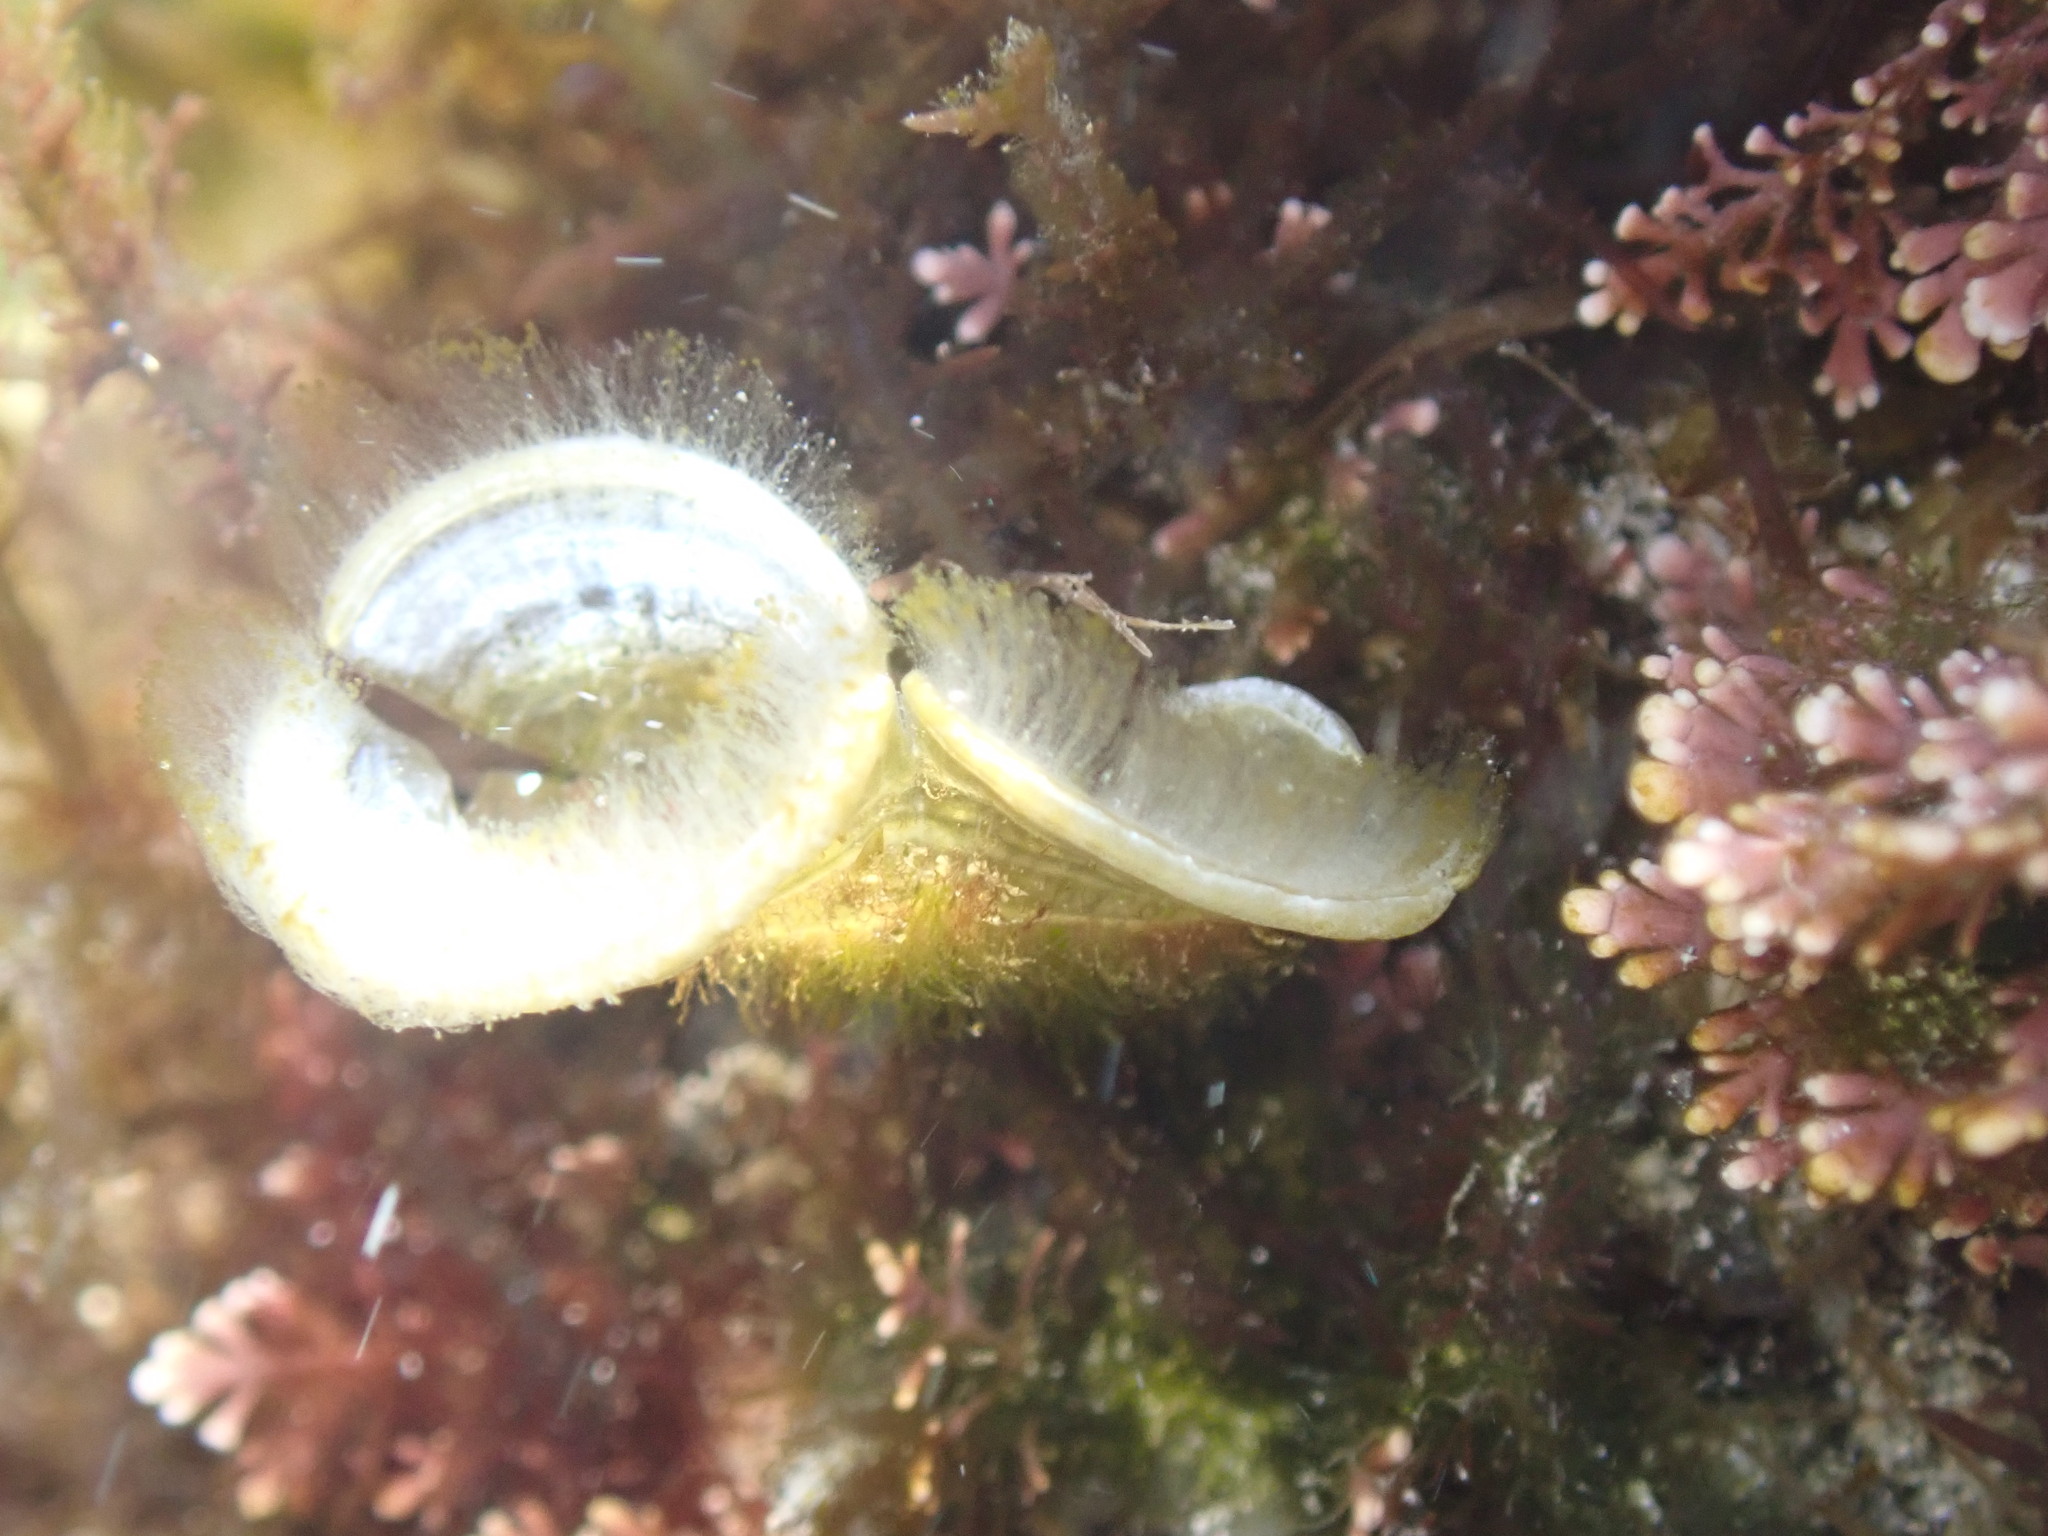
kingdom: Chromista
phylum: Ochrophyta
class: Phaeophyceae
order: Dictyotales
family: Dictyotaceae
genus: Padina
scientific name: Padina
